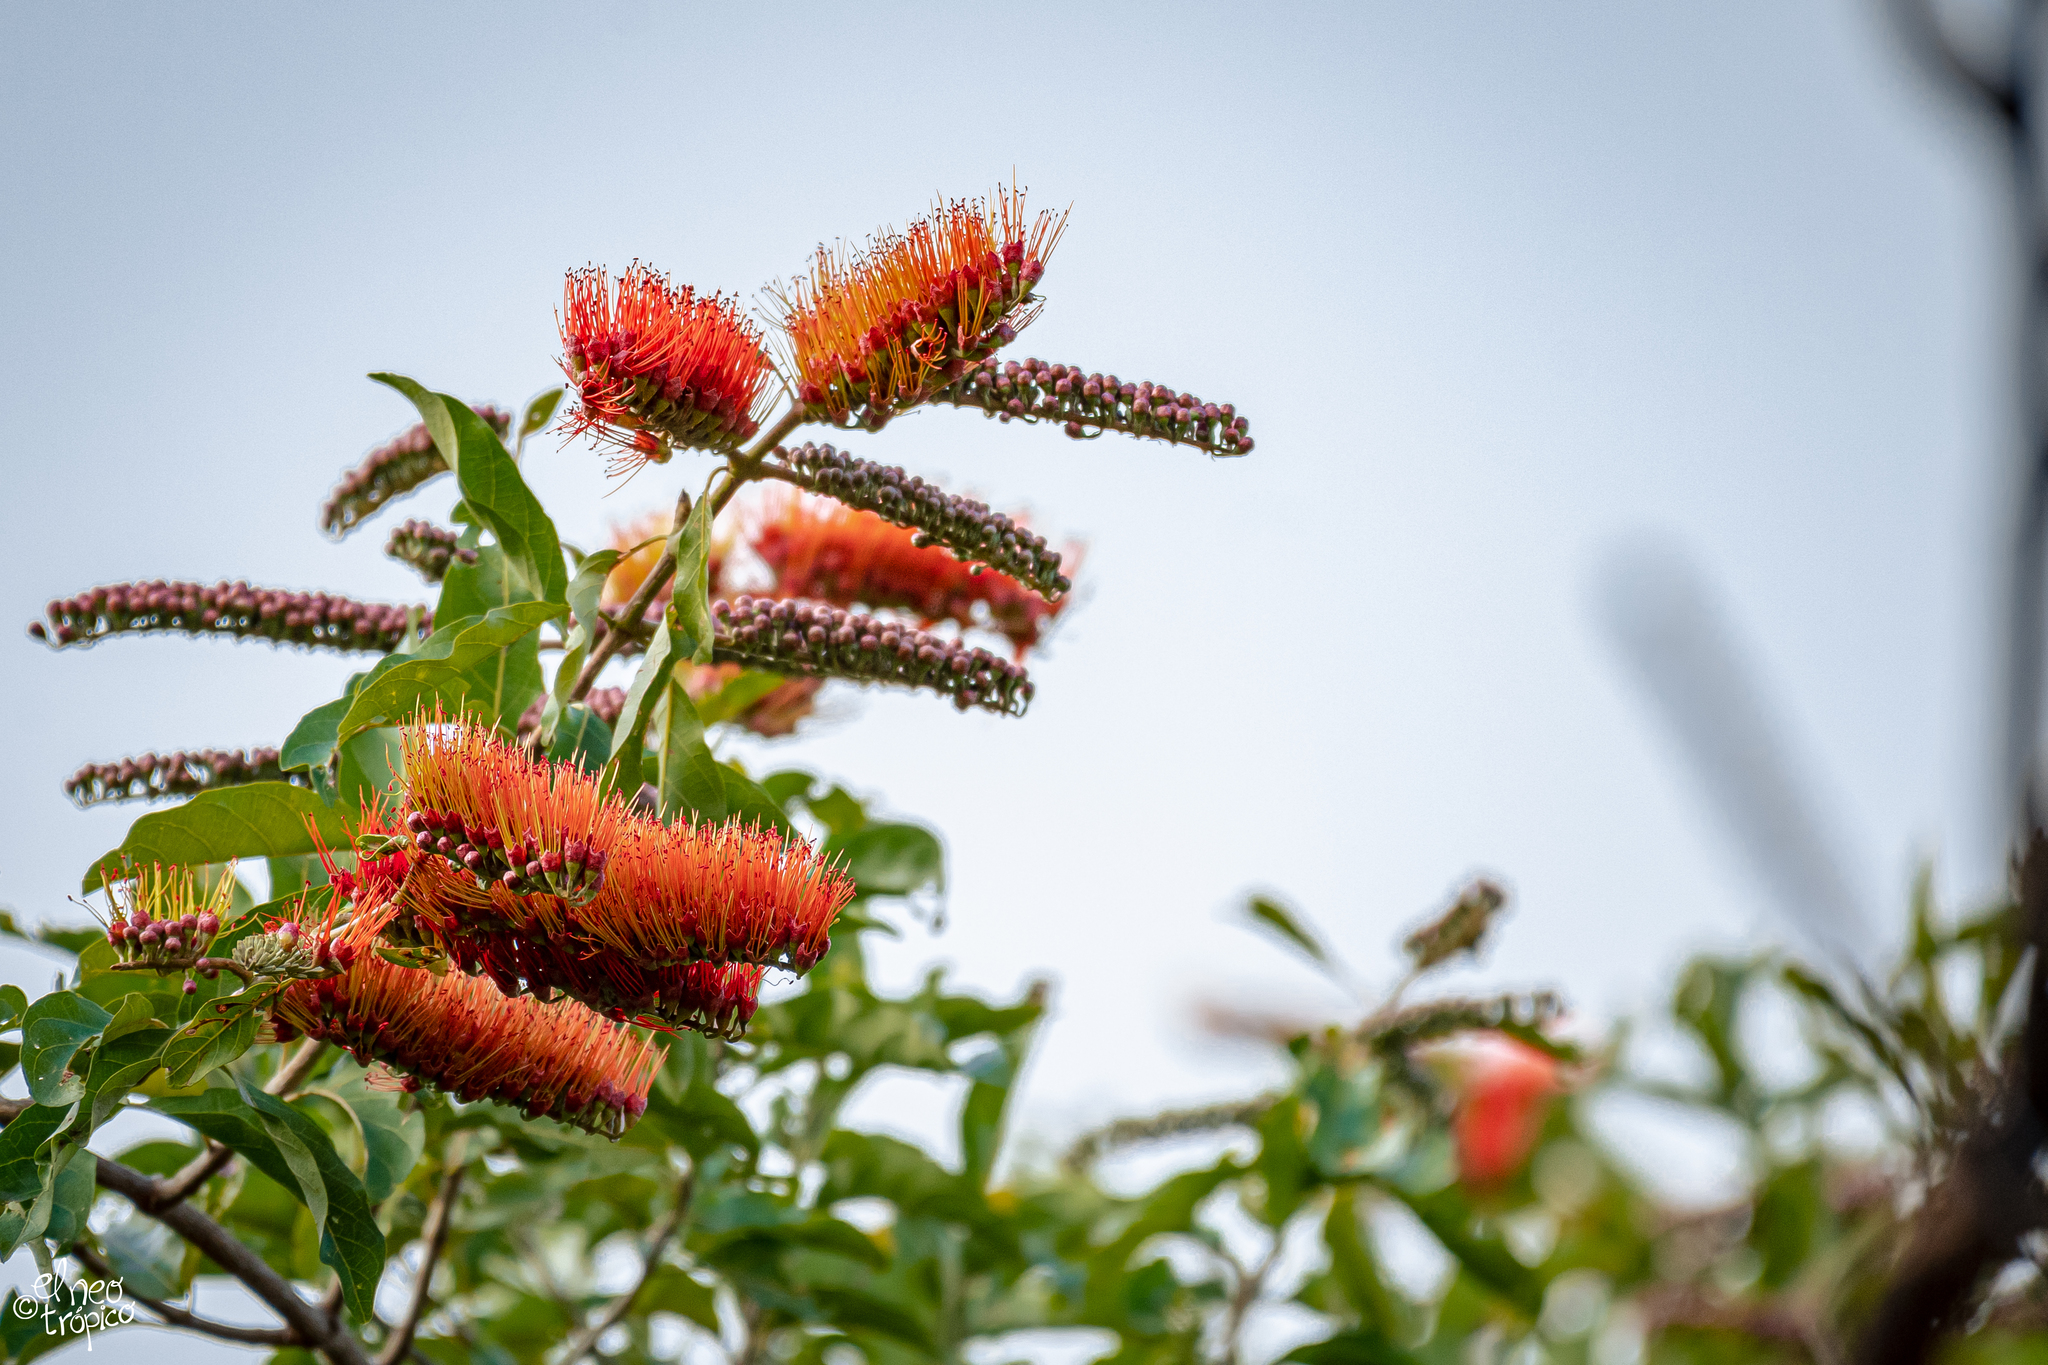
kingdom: Plantae
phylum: Tracheophyta
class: Magnoliopsida
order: Myrtales
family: Combretaceae
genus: Combretum
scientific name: Combretum farinosum
